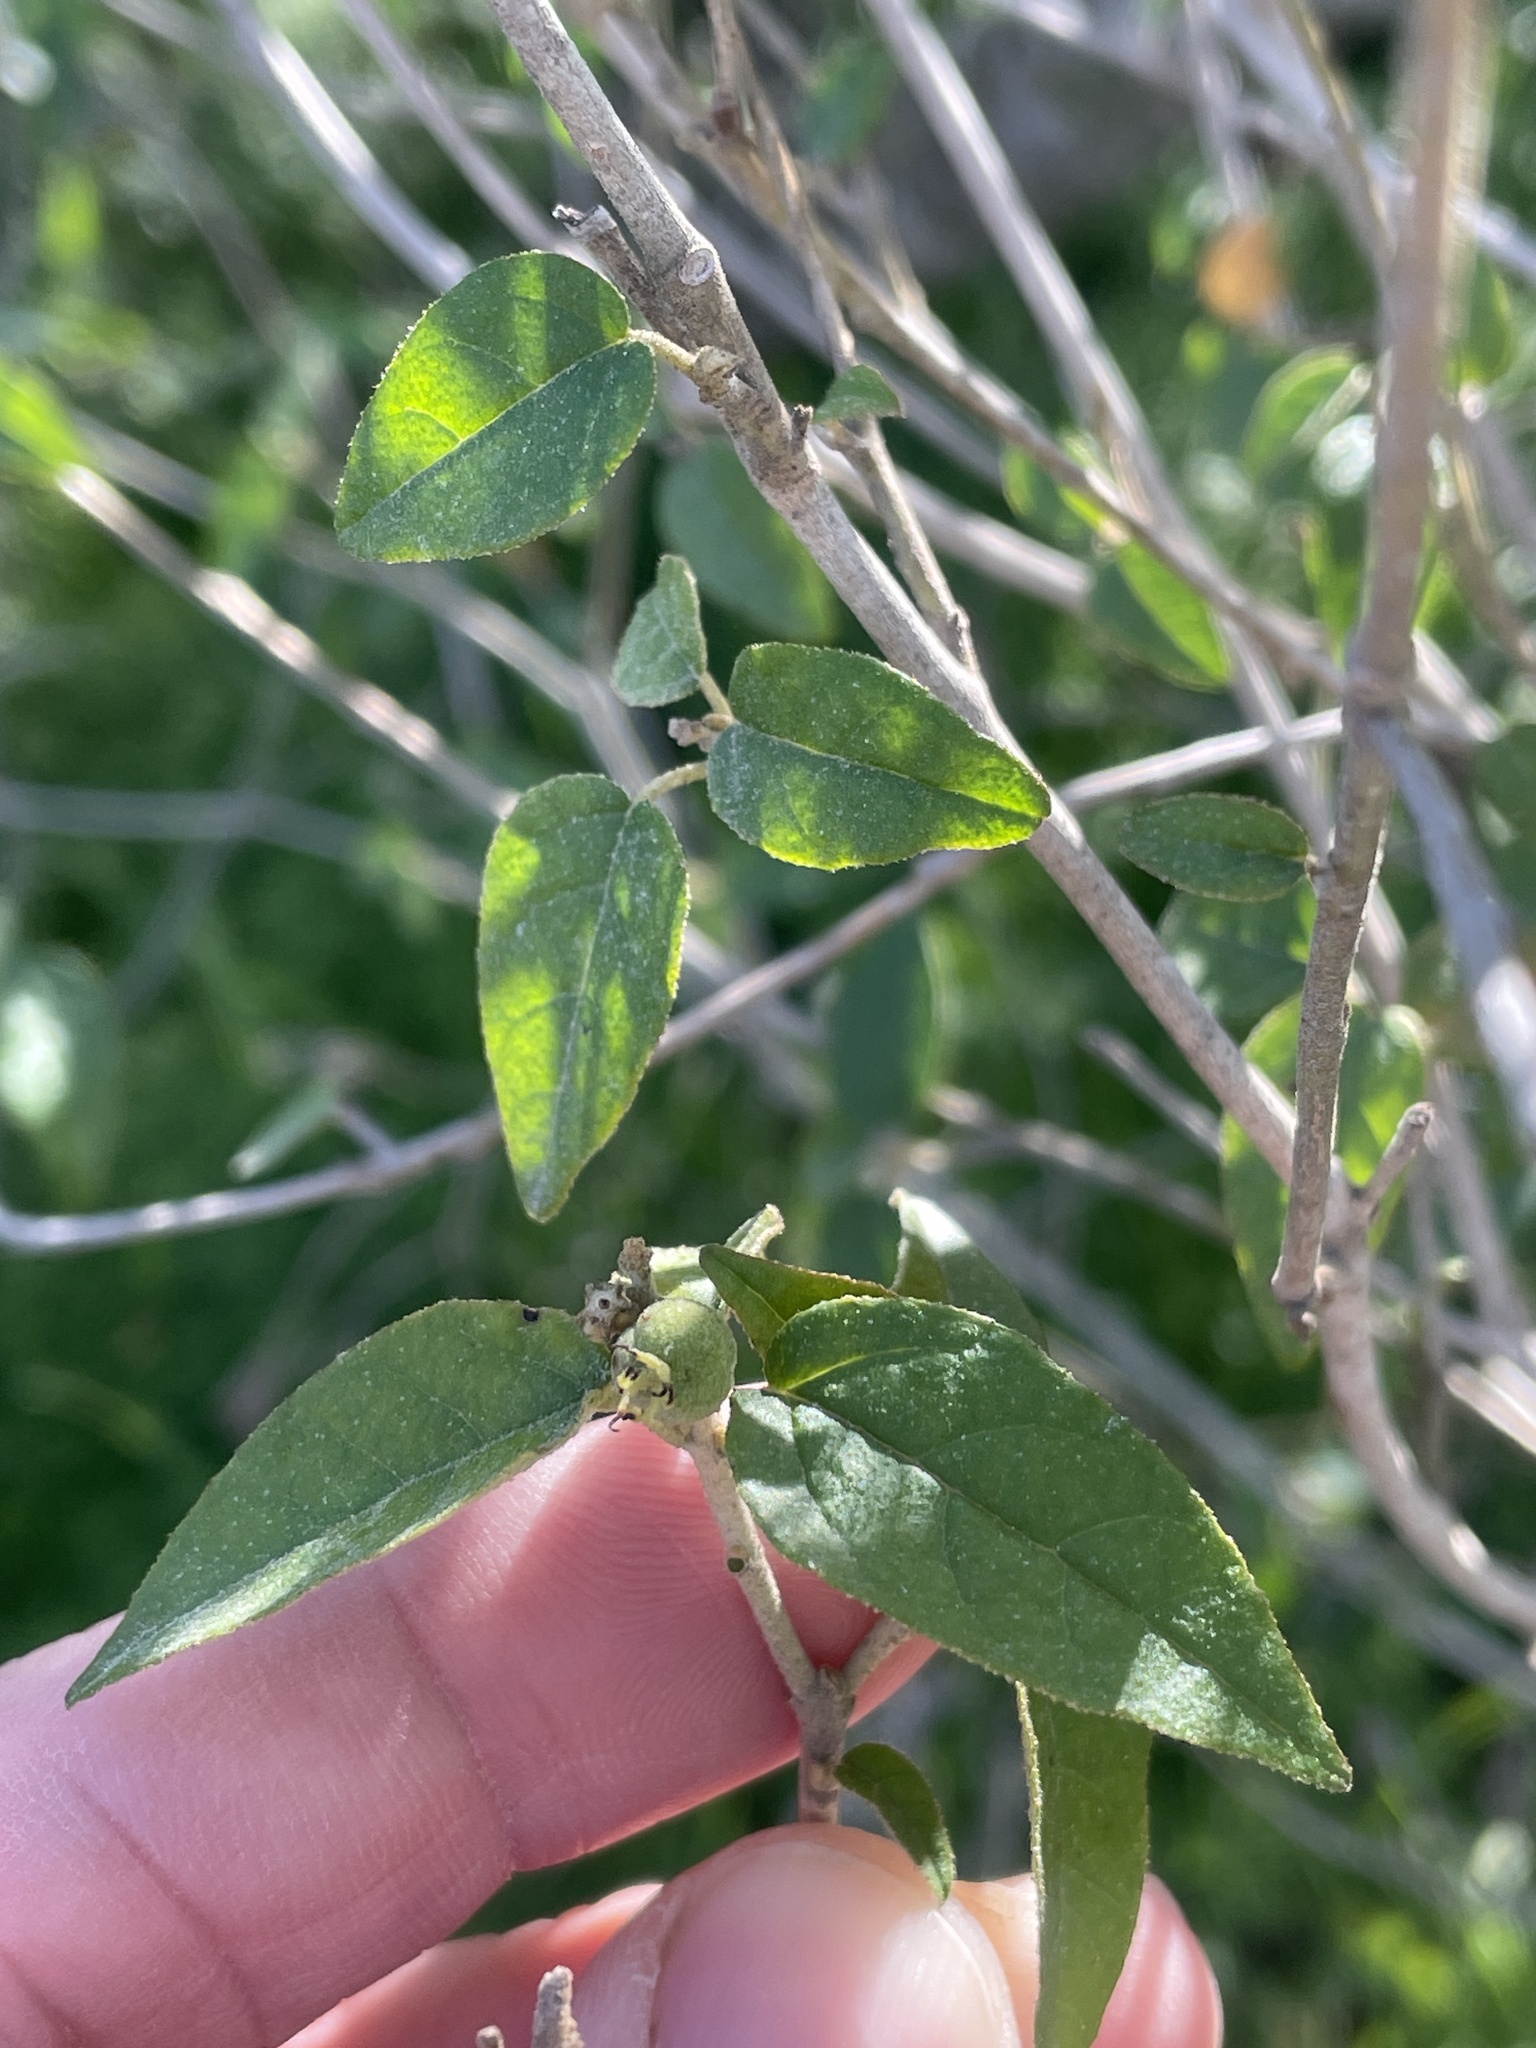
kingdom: Plantae
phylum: Tracheophyta
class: Magnoliopsida
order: Malpighiales
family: Euphorbiaceae
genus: Croton
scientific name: Croton fruticulosus
